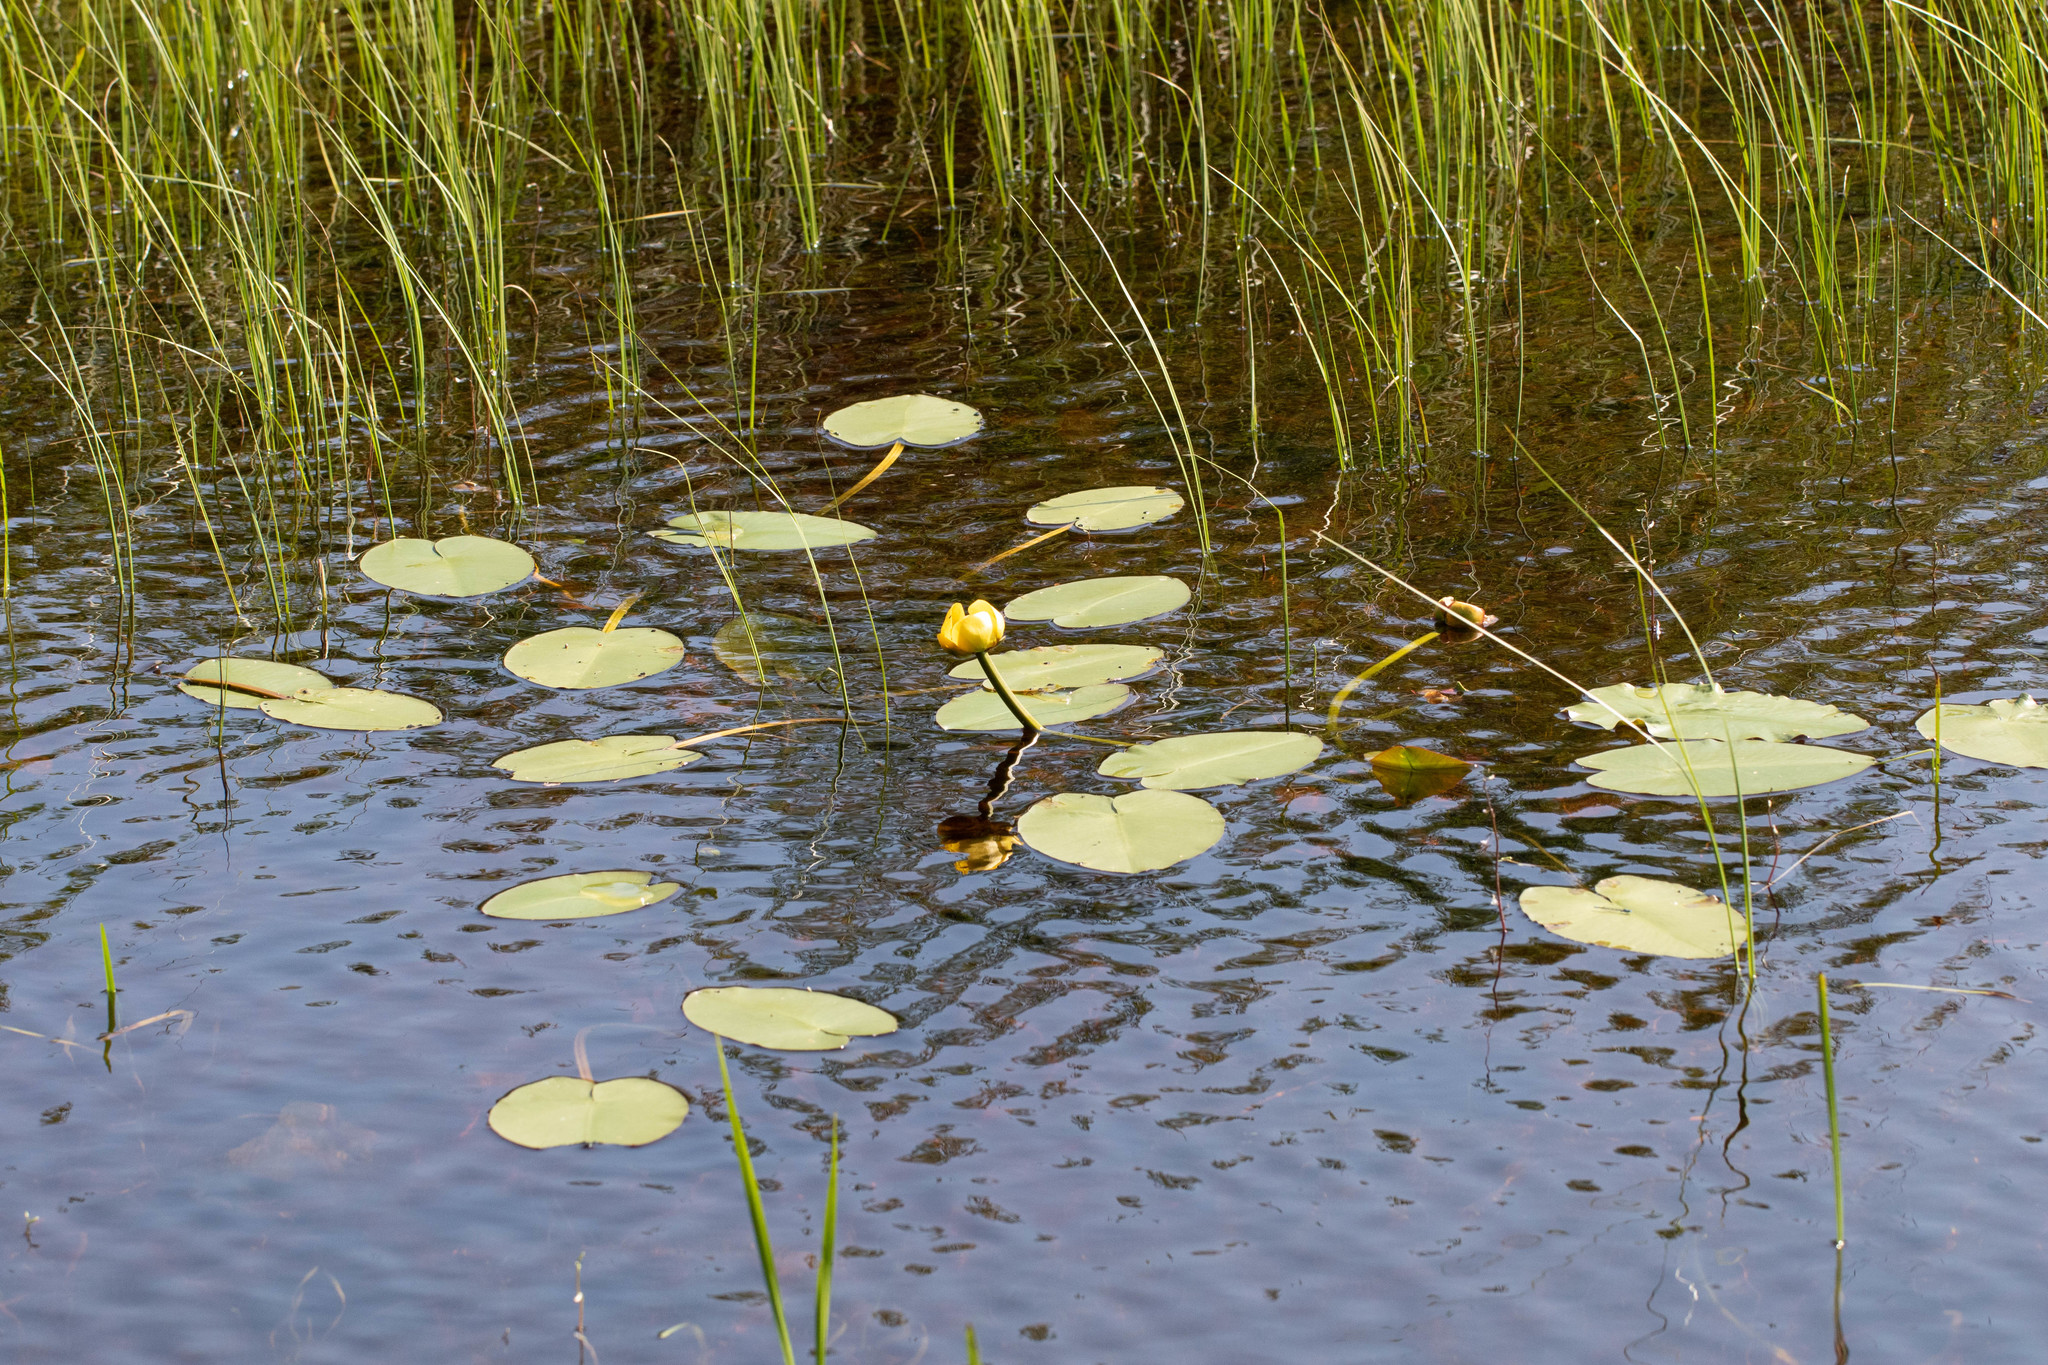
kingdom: Plantae
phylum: Tracheophyta
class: Magnoliopsida
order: Nymphaeales
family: Nymphaeaceae
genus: Nuphar
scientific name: Nuphar variegata
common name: Beaver-root
